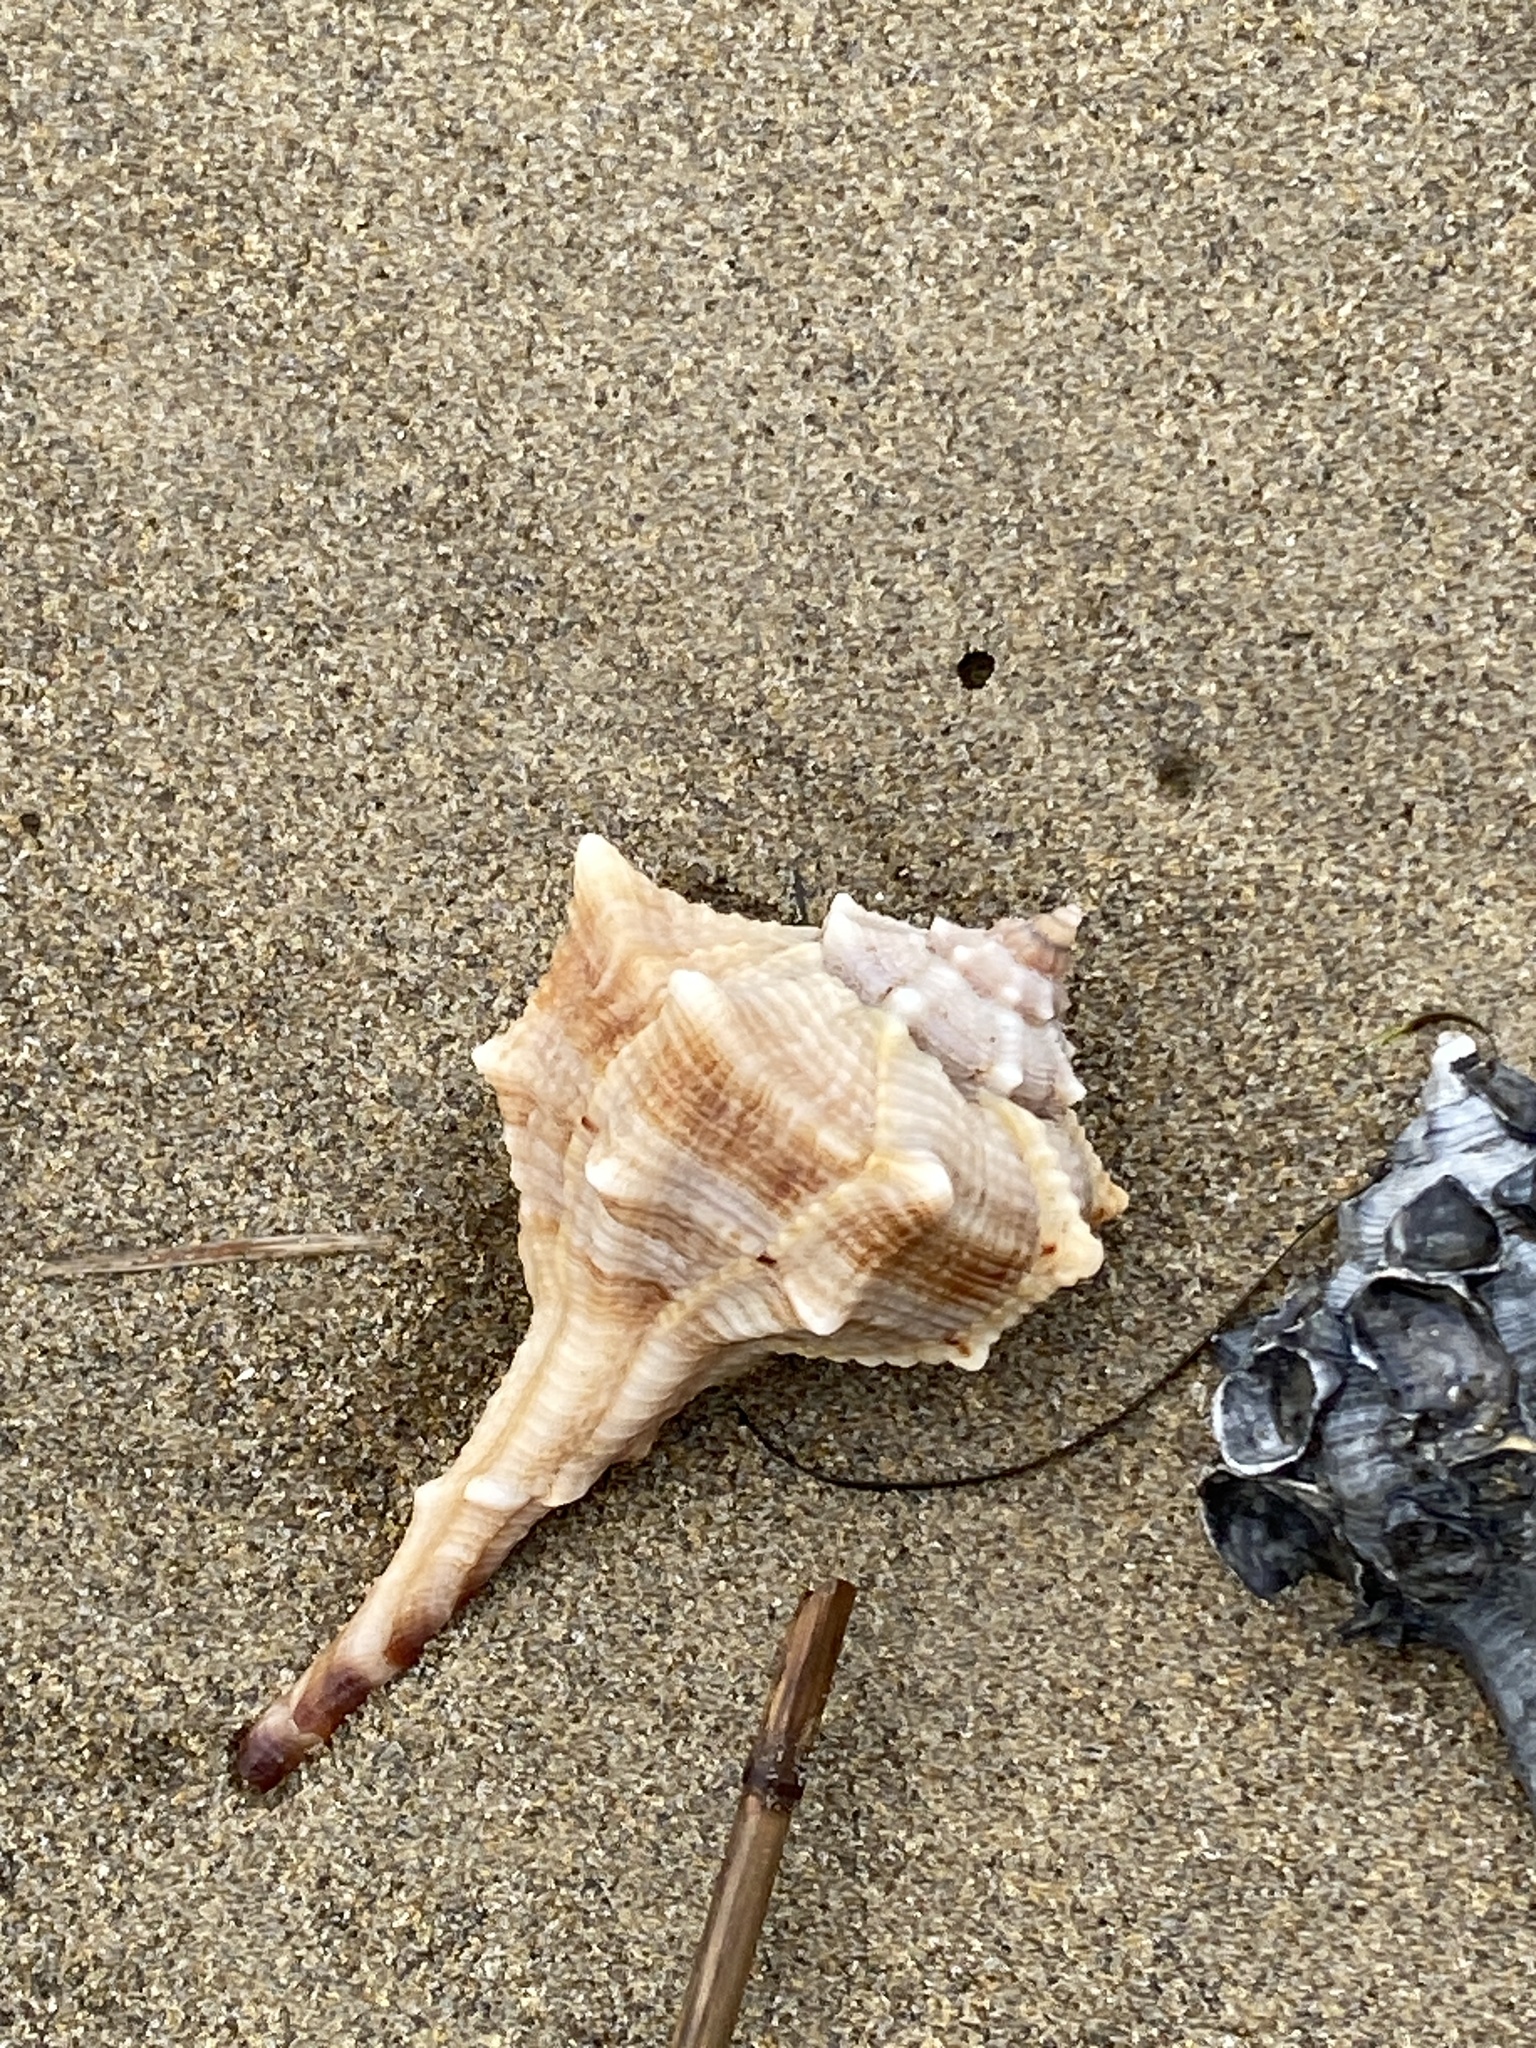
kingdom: Animalia
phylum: Mollusca
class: Gastropoda
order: Neogastropoda
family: Muricidae
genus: Bolinus
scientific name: Bolinus brandaris
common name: Dye murex
